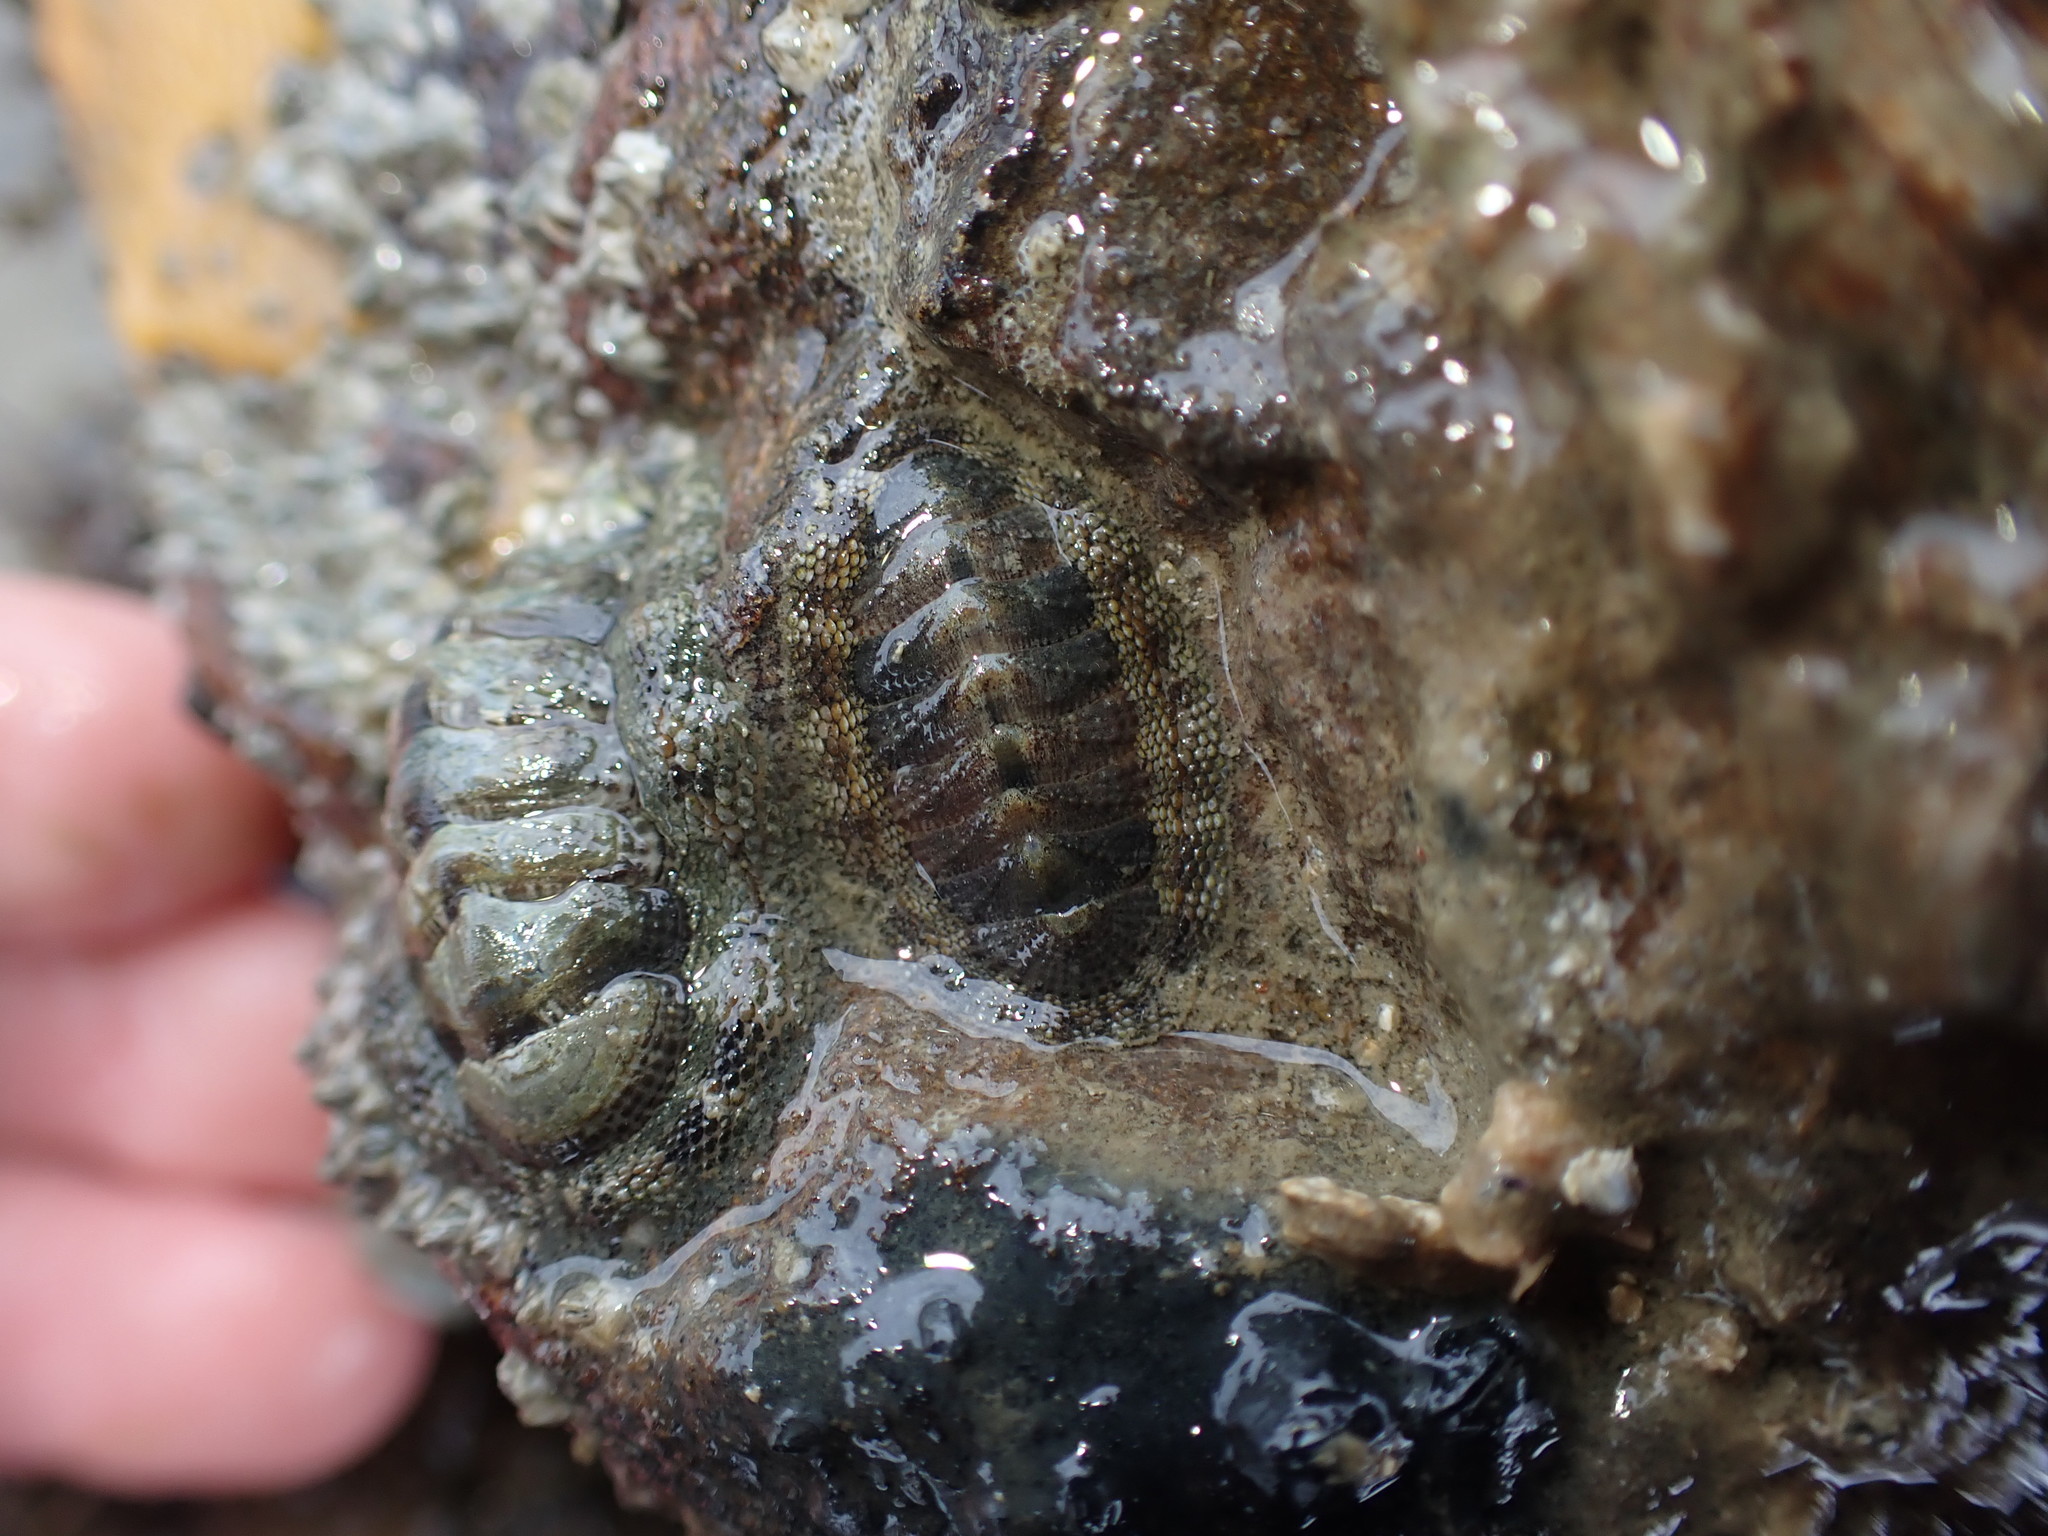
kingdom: Animalia
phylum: Mollusca
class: Polyplacophora
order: Chitonida
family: Chitonidae
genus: Sypharochiton
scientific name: Sypharochiton pelliserpentis
